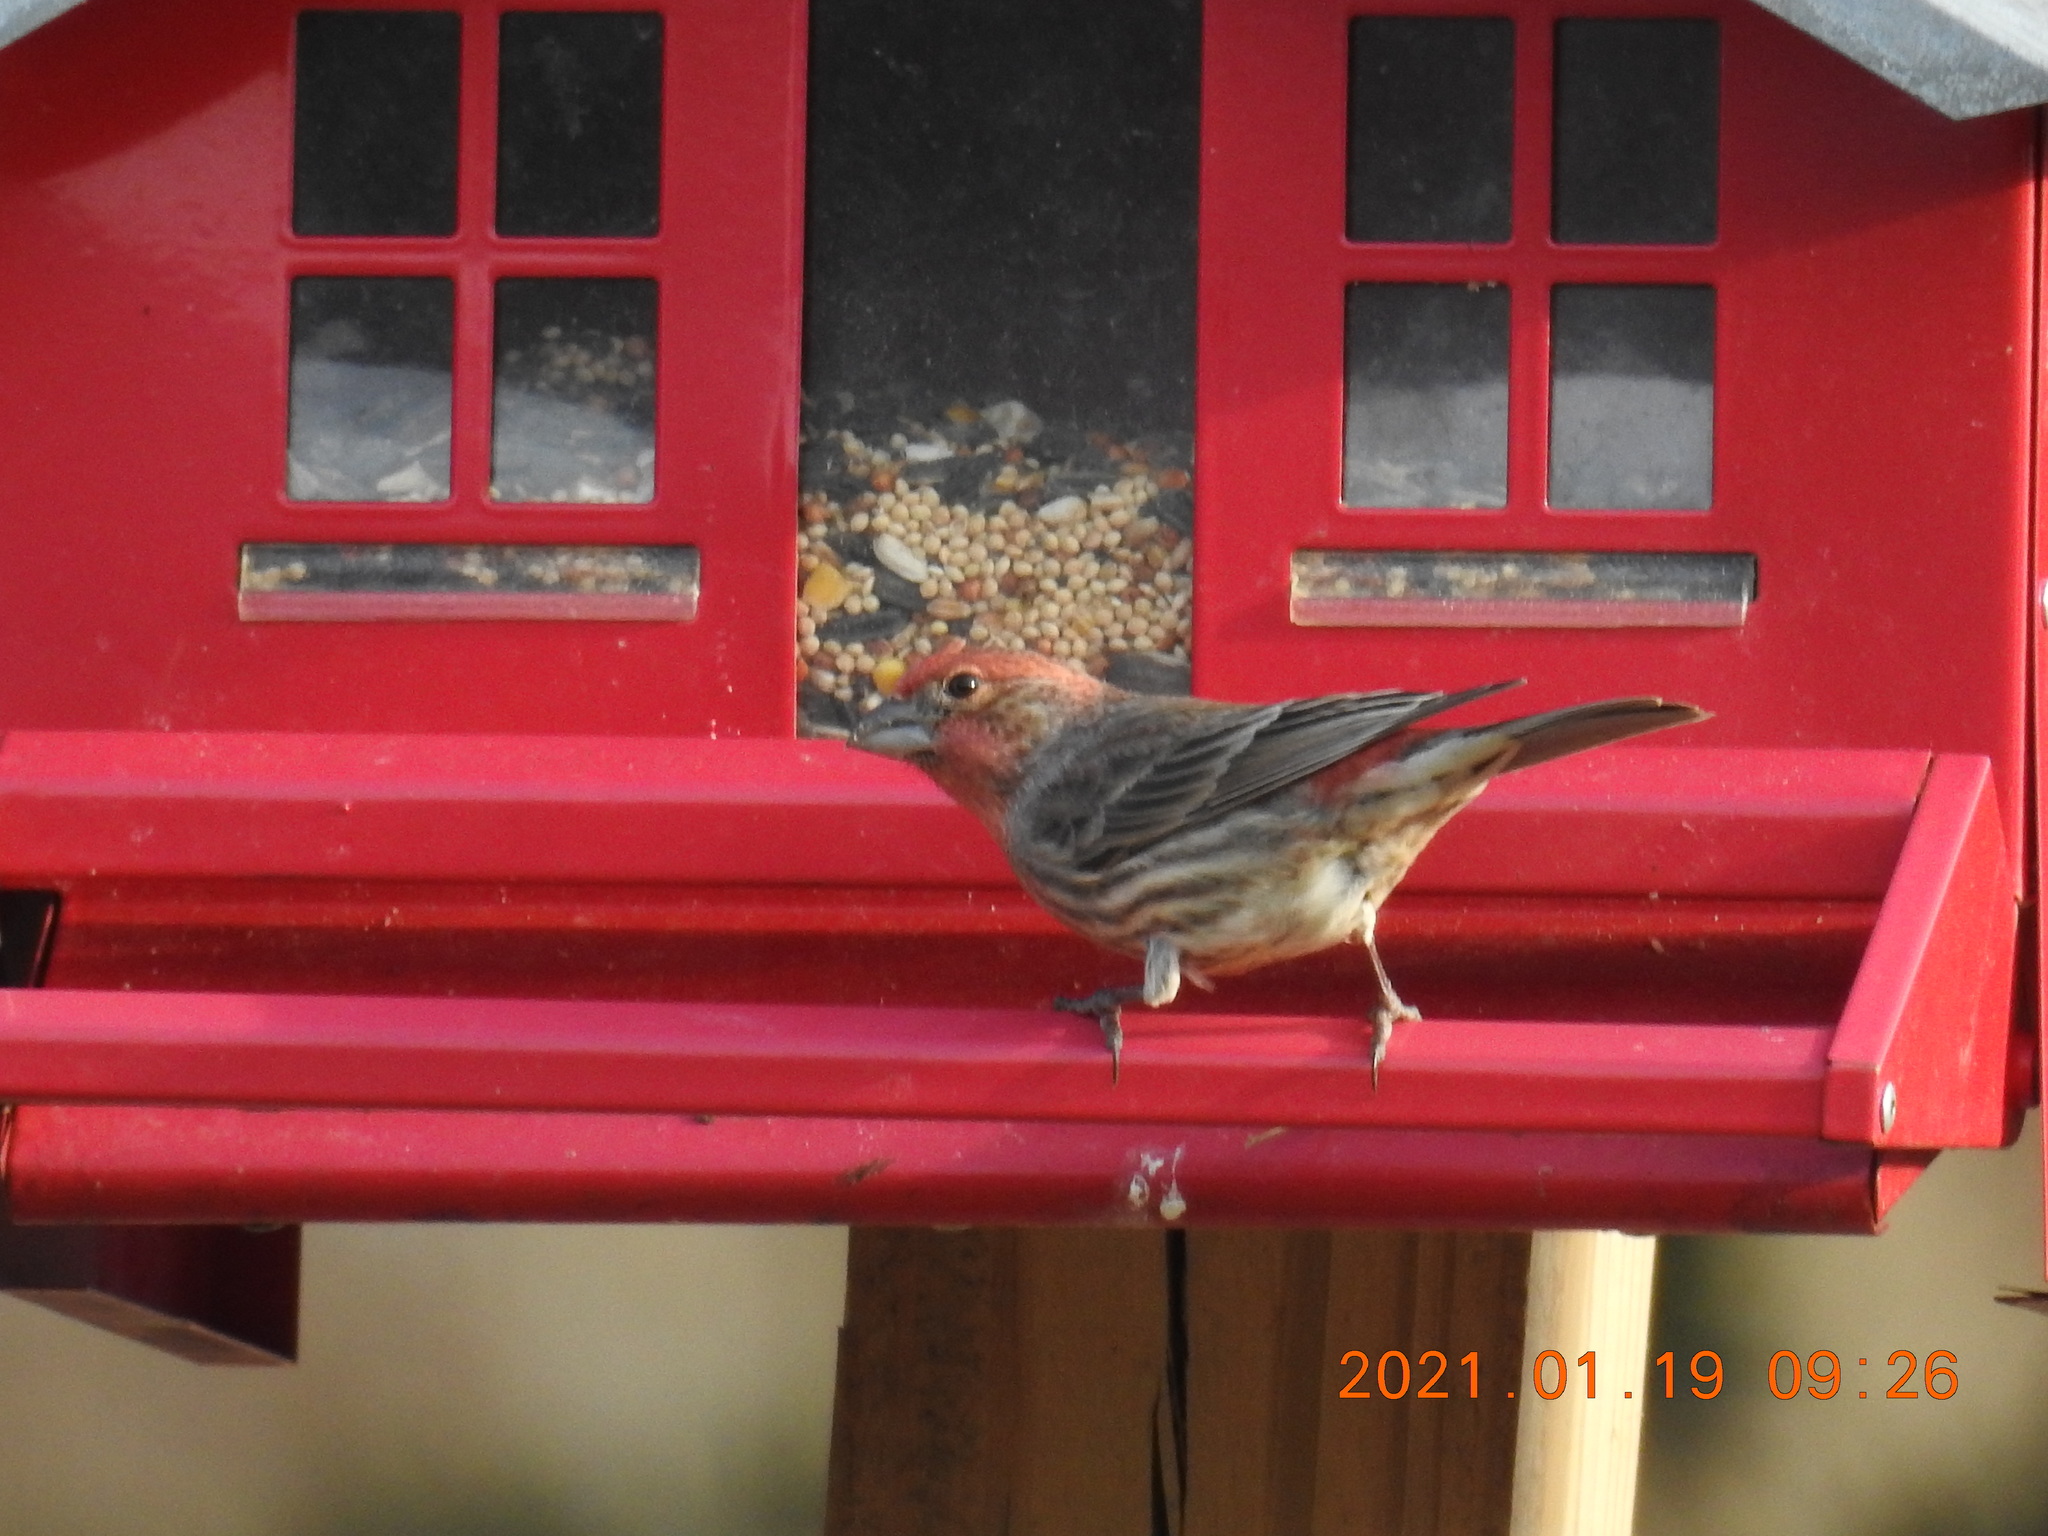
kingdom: Animalia
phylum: Chordata
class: Aves
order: Passeriformes
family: Fringillidae
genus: Haemorhous
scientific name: Haemorhous mexicanus
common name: House finch
